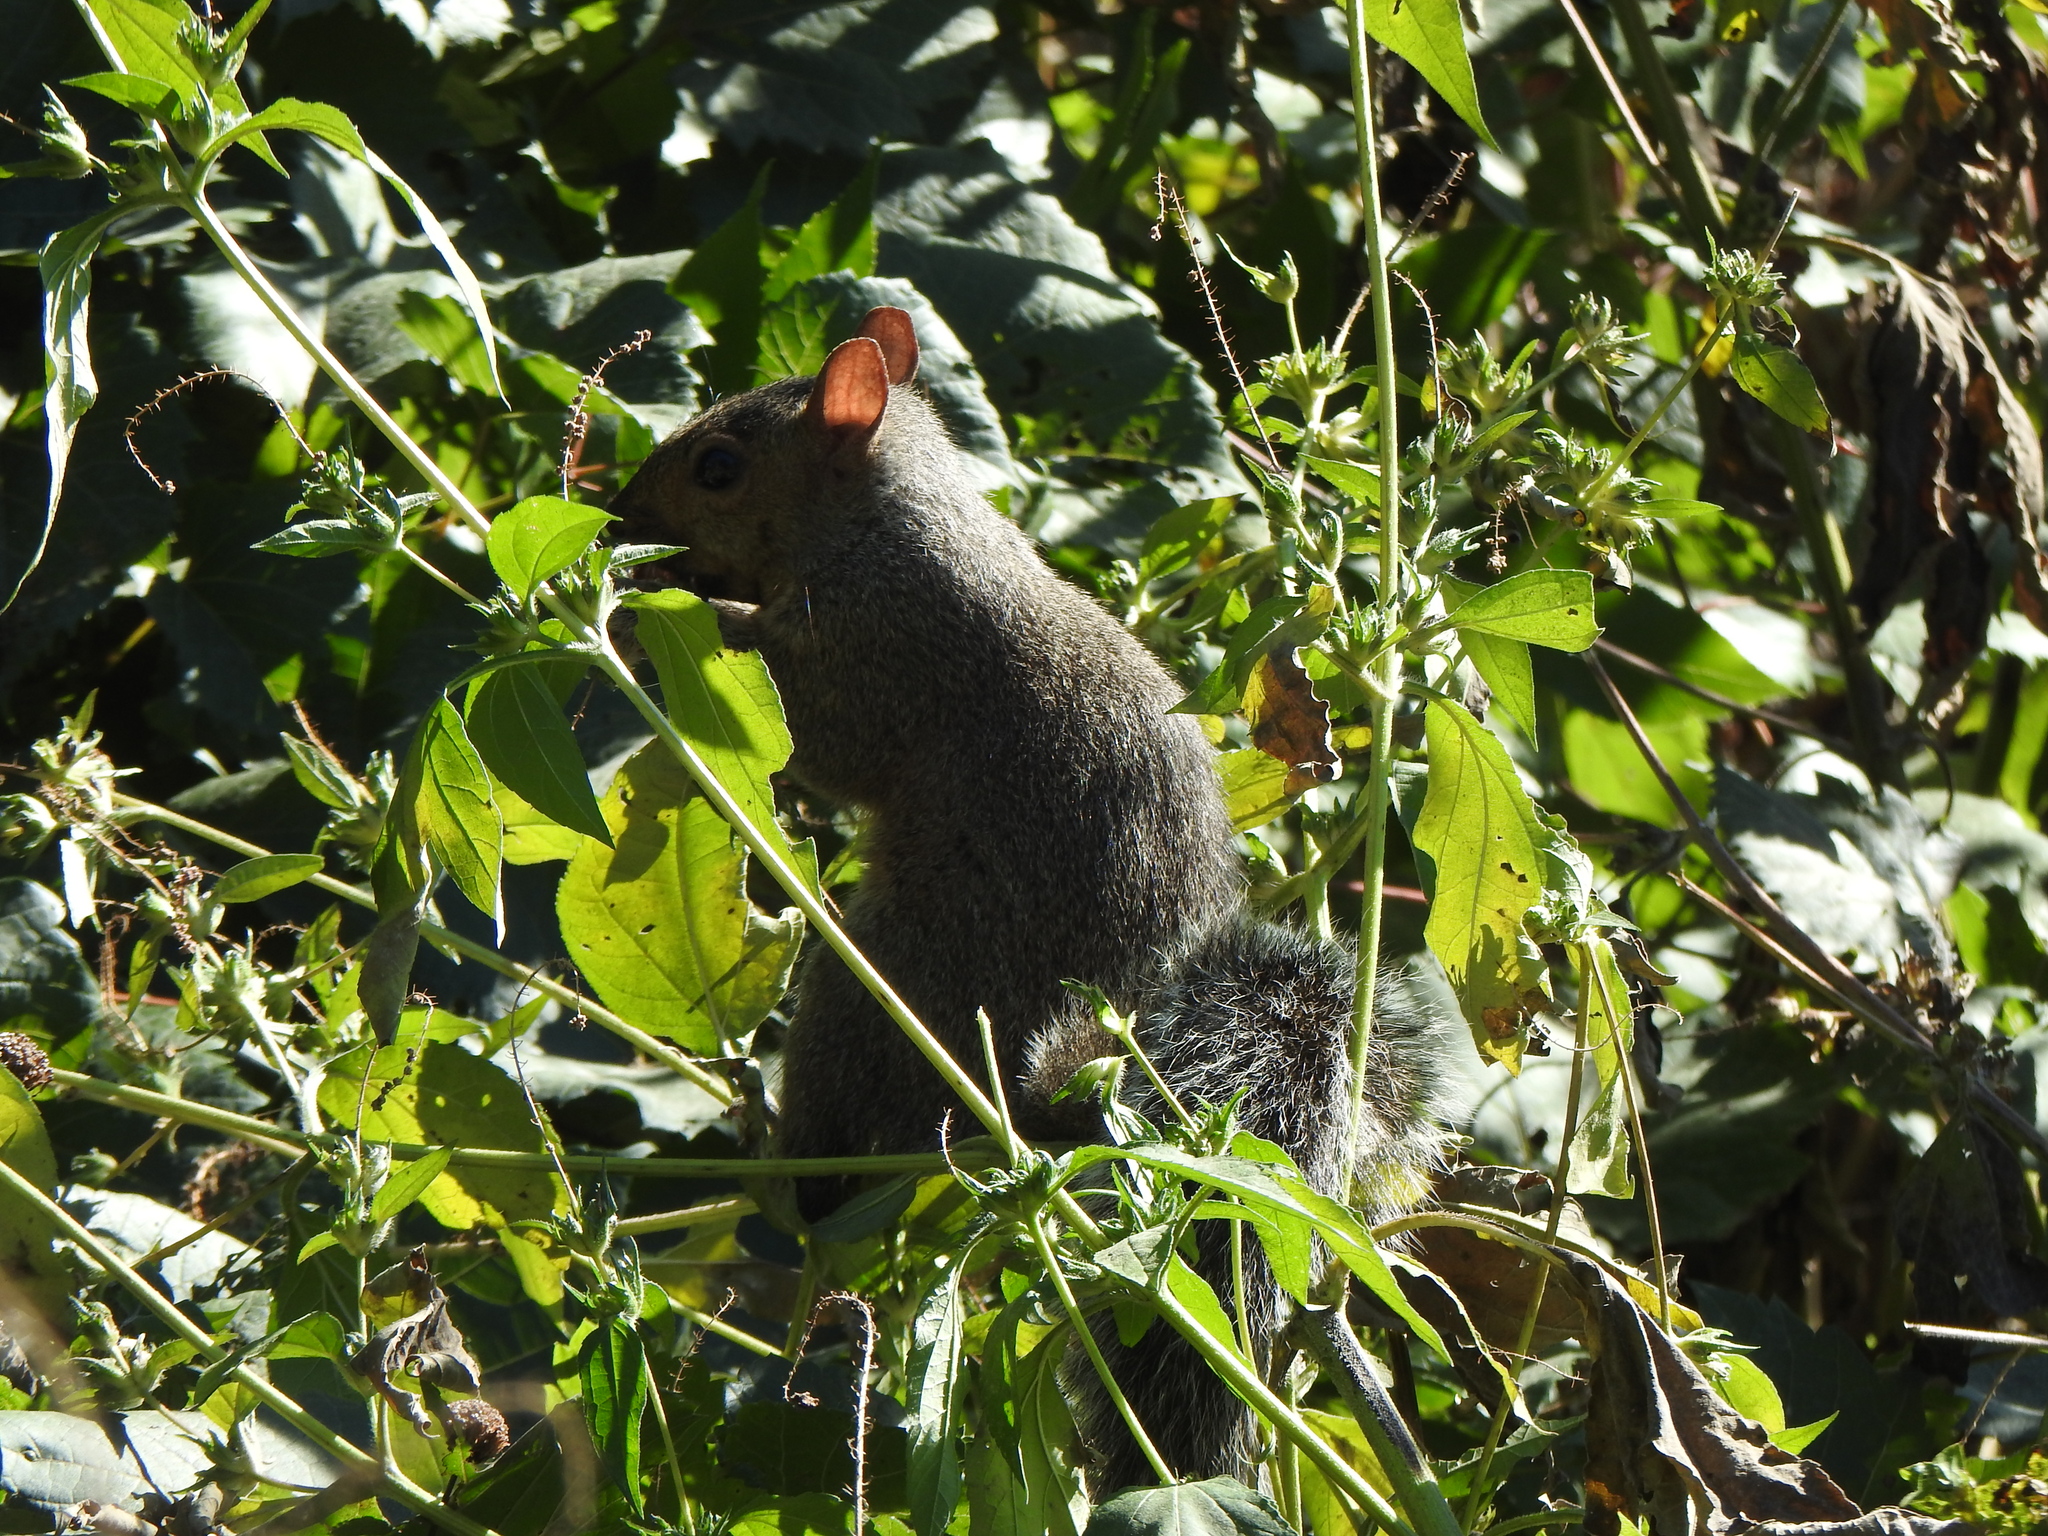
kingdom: Animalia
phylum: Chordata
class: Mammalia
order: Rodentia
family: Sciuridae
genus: Sciurus
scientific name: Sciurus carolinensis
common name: Eastern gray squirrel
